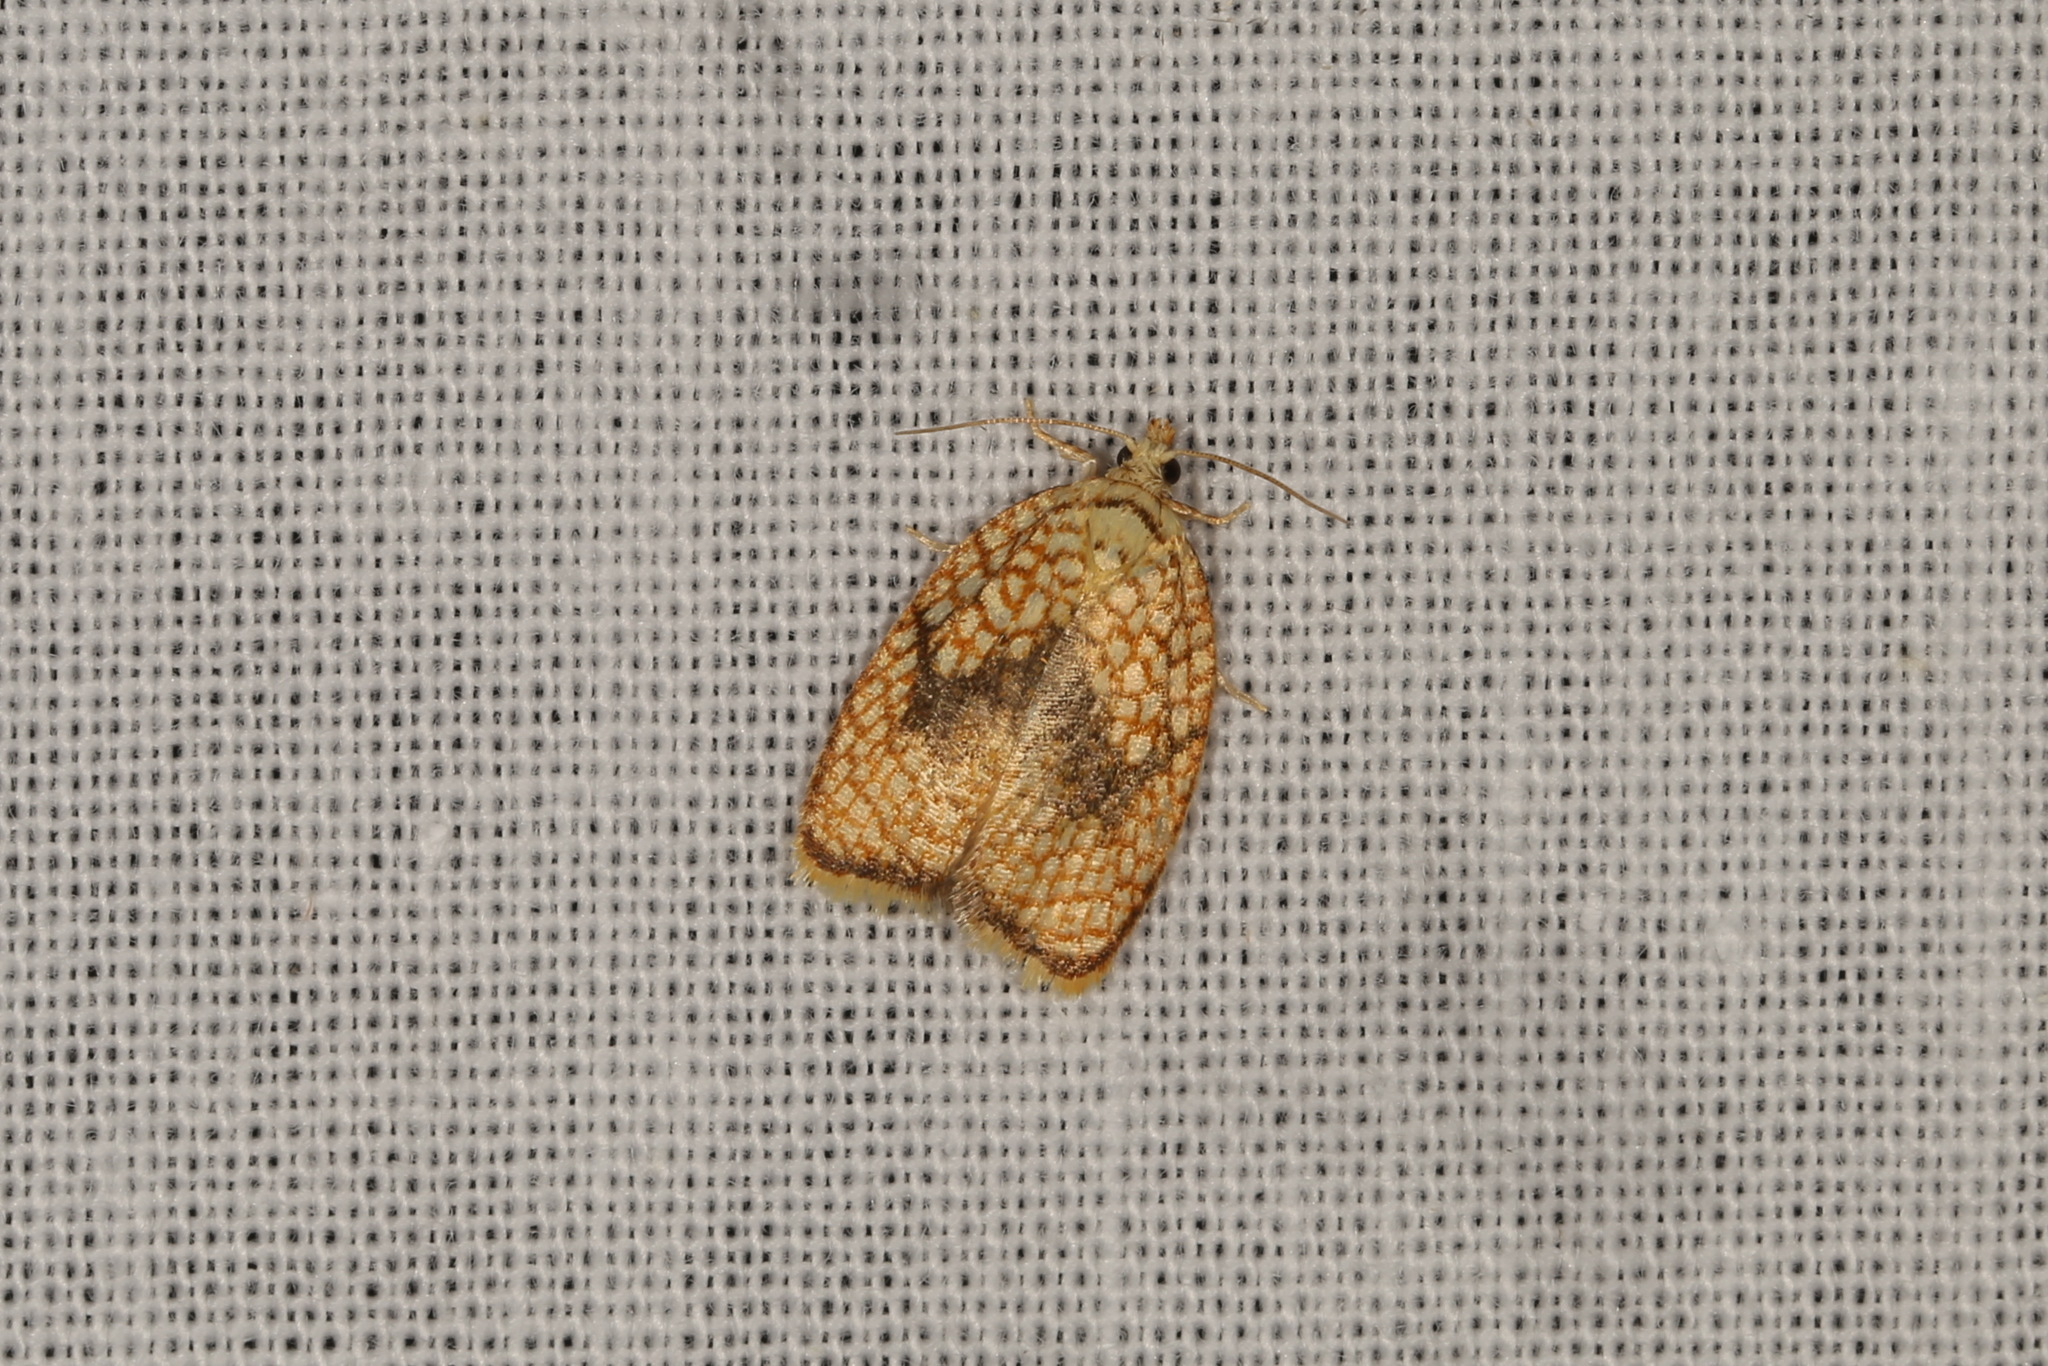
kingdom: Animalia
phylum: Arthropoda
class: Insecta
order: Lepidoptera
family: Tortricidae
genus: Acleris
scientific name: Acleris forsskaleana
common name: Maple button
